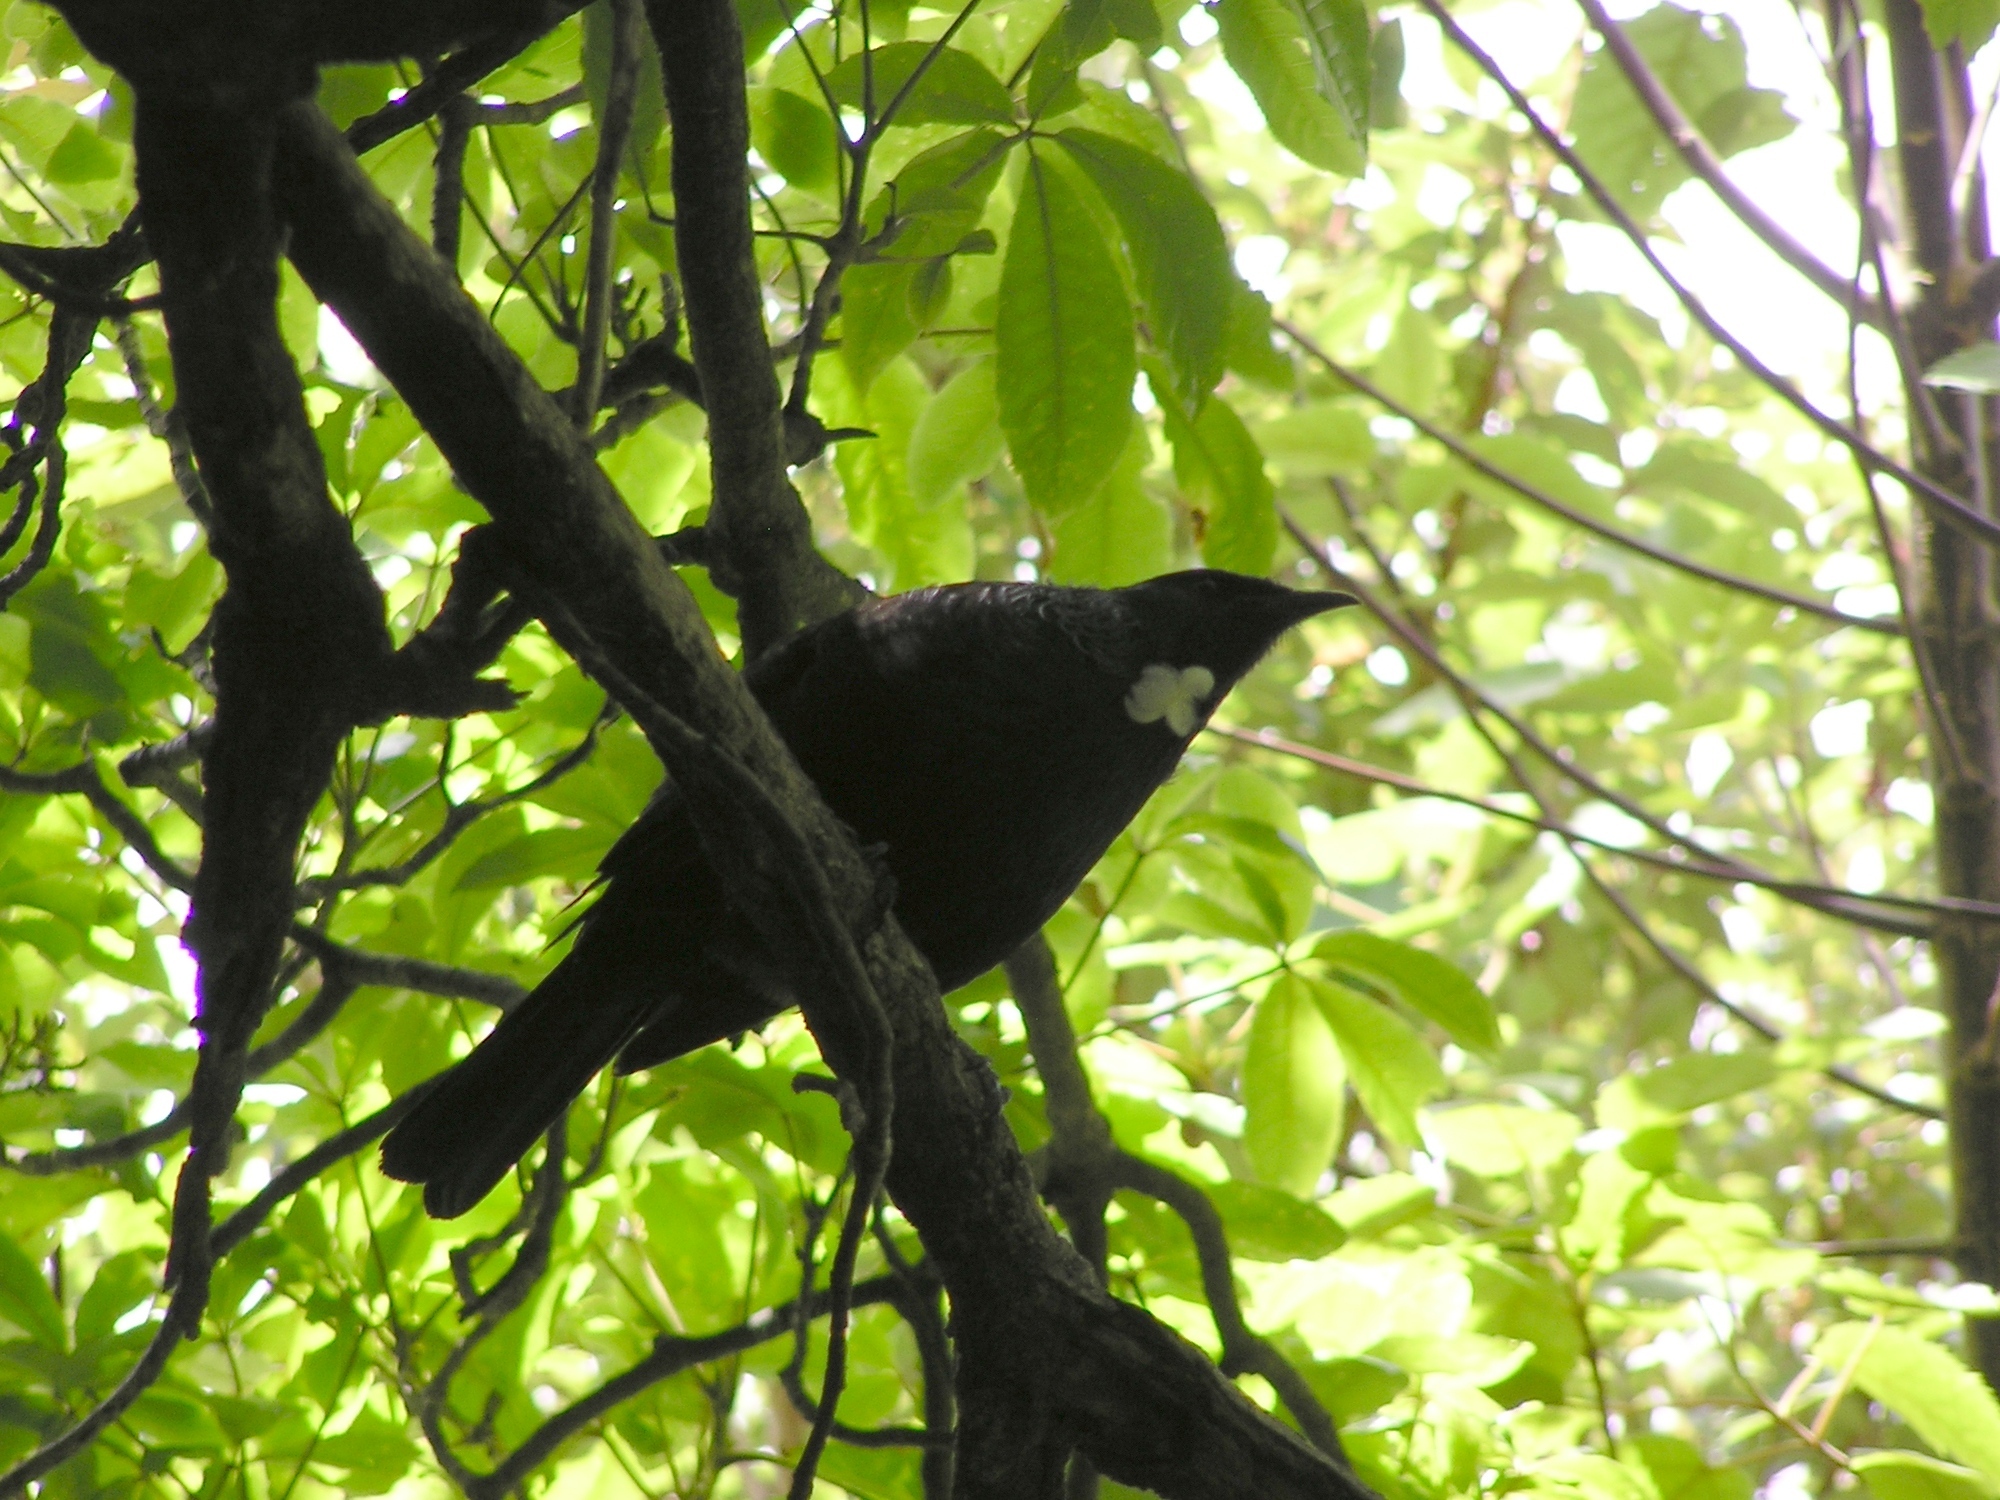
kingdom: Animalia
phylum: Chordata
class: Aves
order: Passeriformes
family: Meliphagidae
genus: Prosthemadera
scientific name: Prosthemadera novaeseelandiae
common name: Tui
